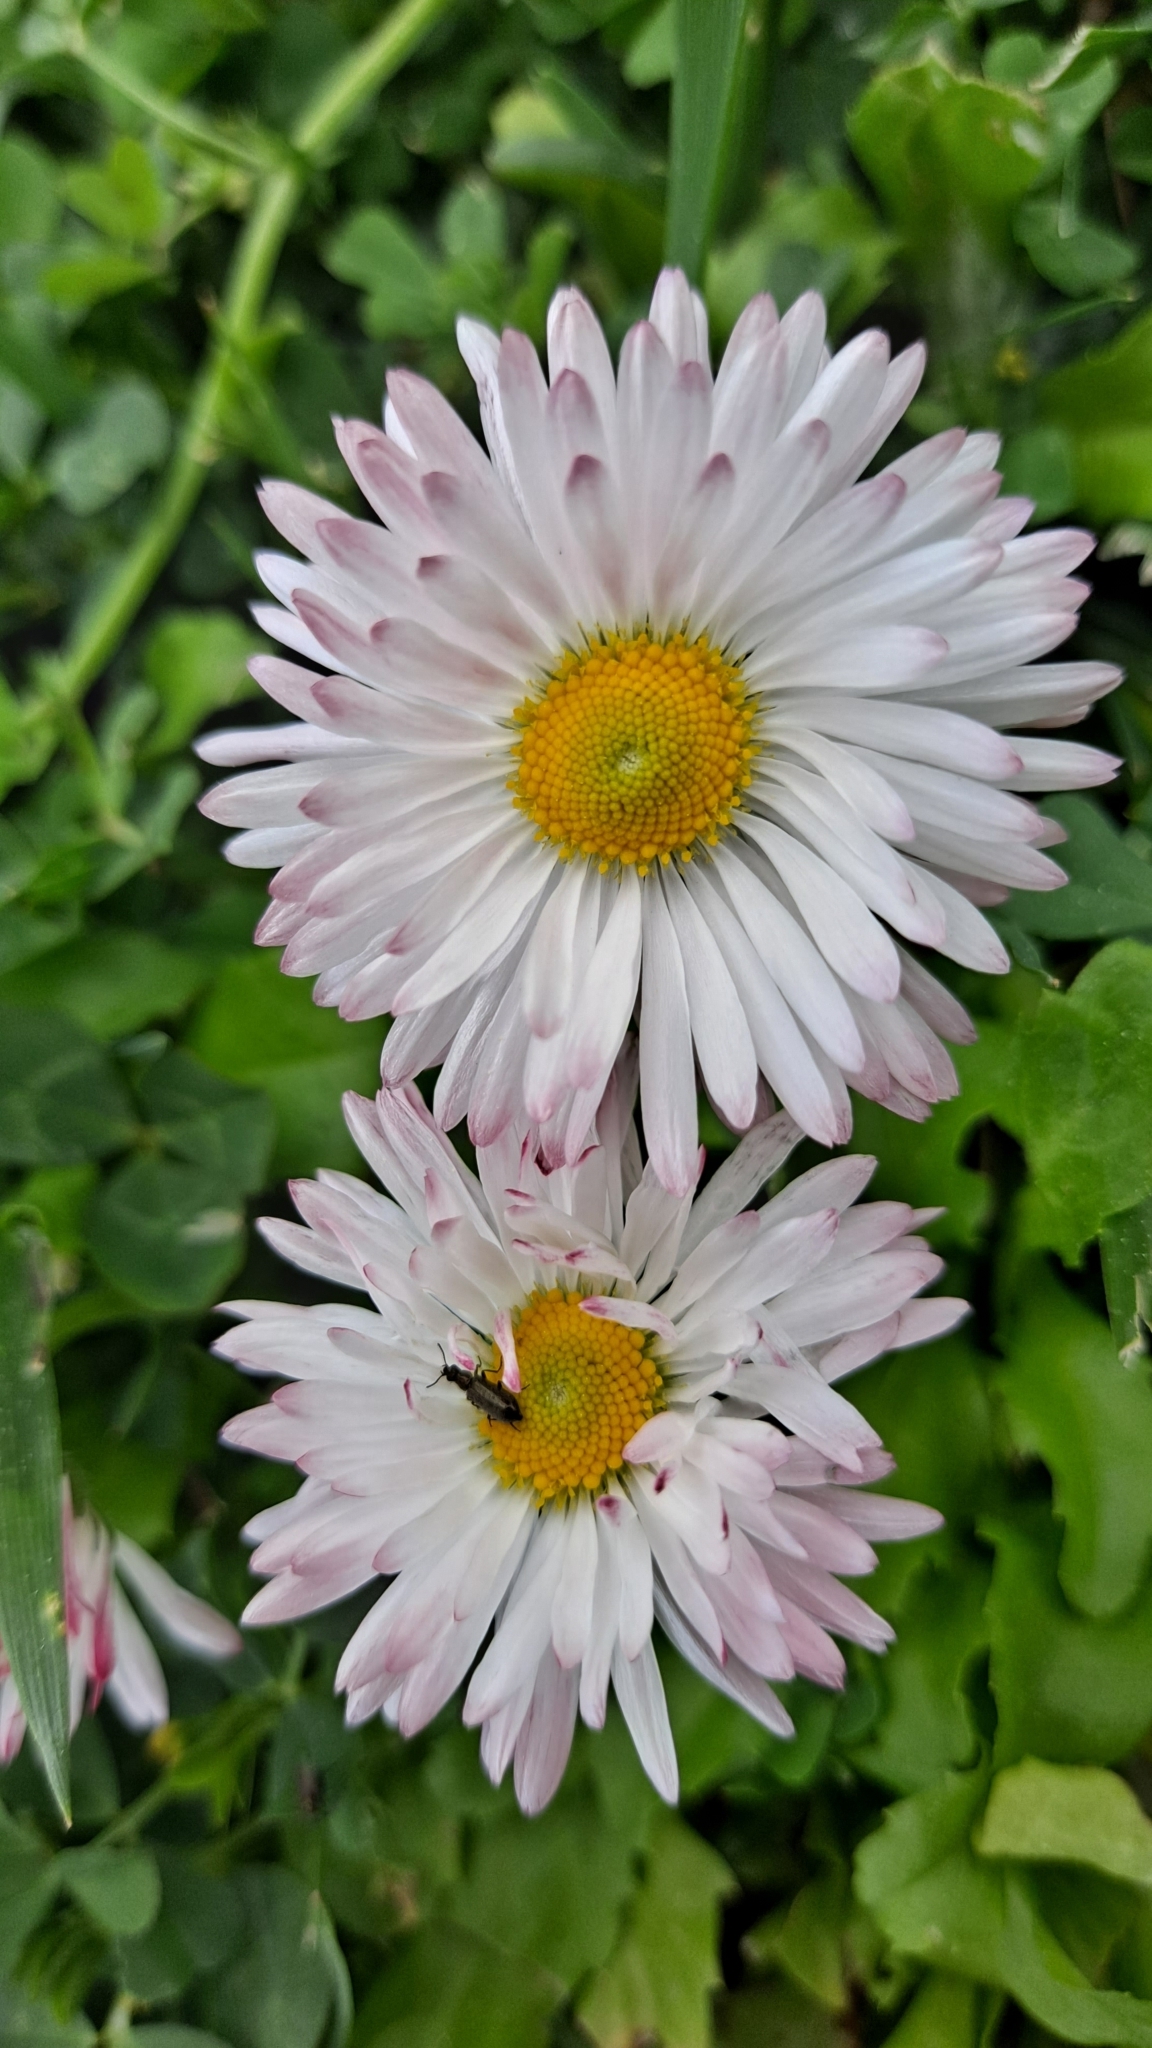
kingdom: Plantae
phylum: Tracheophyta
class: Magnoliopsida
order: Asterales
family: Asteraceae
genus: Bellis
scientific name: Bellis perennis
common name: Lawndaisy
